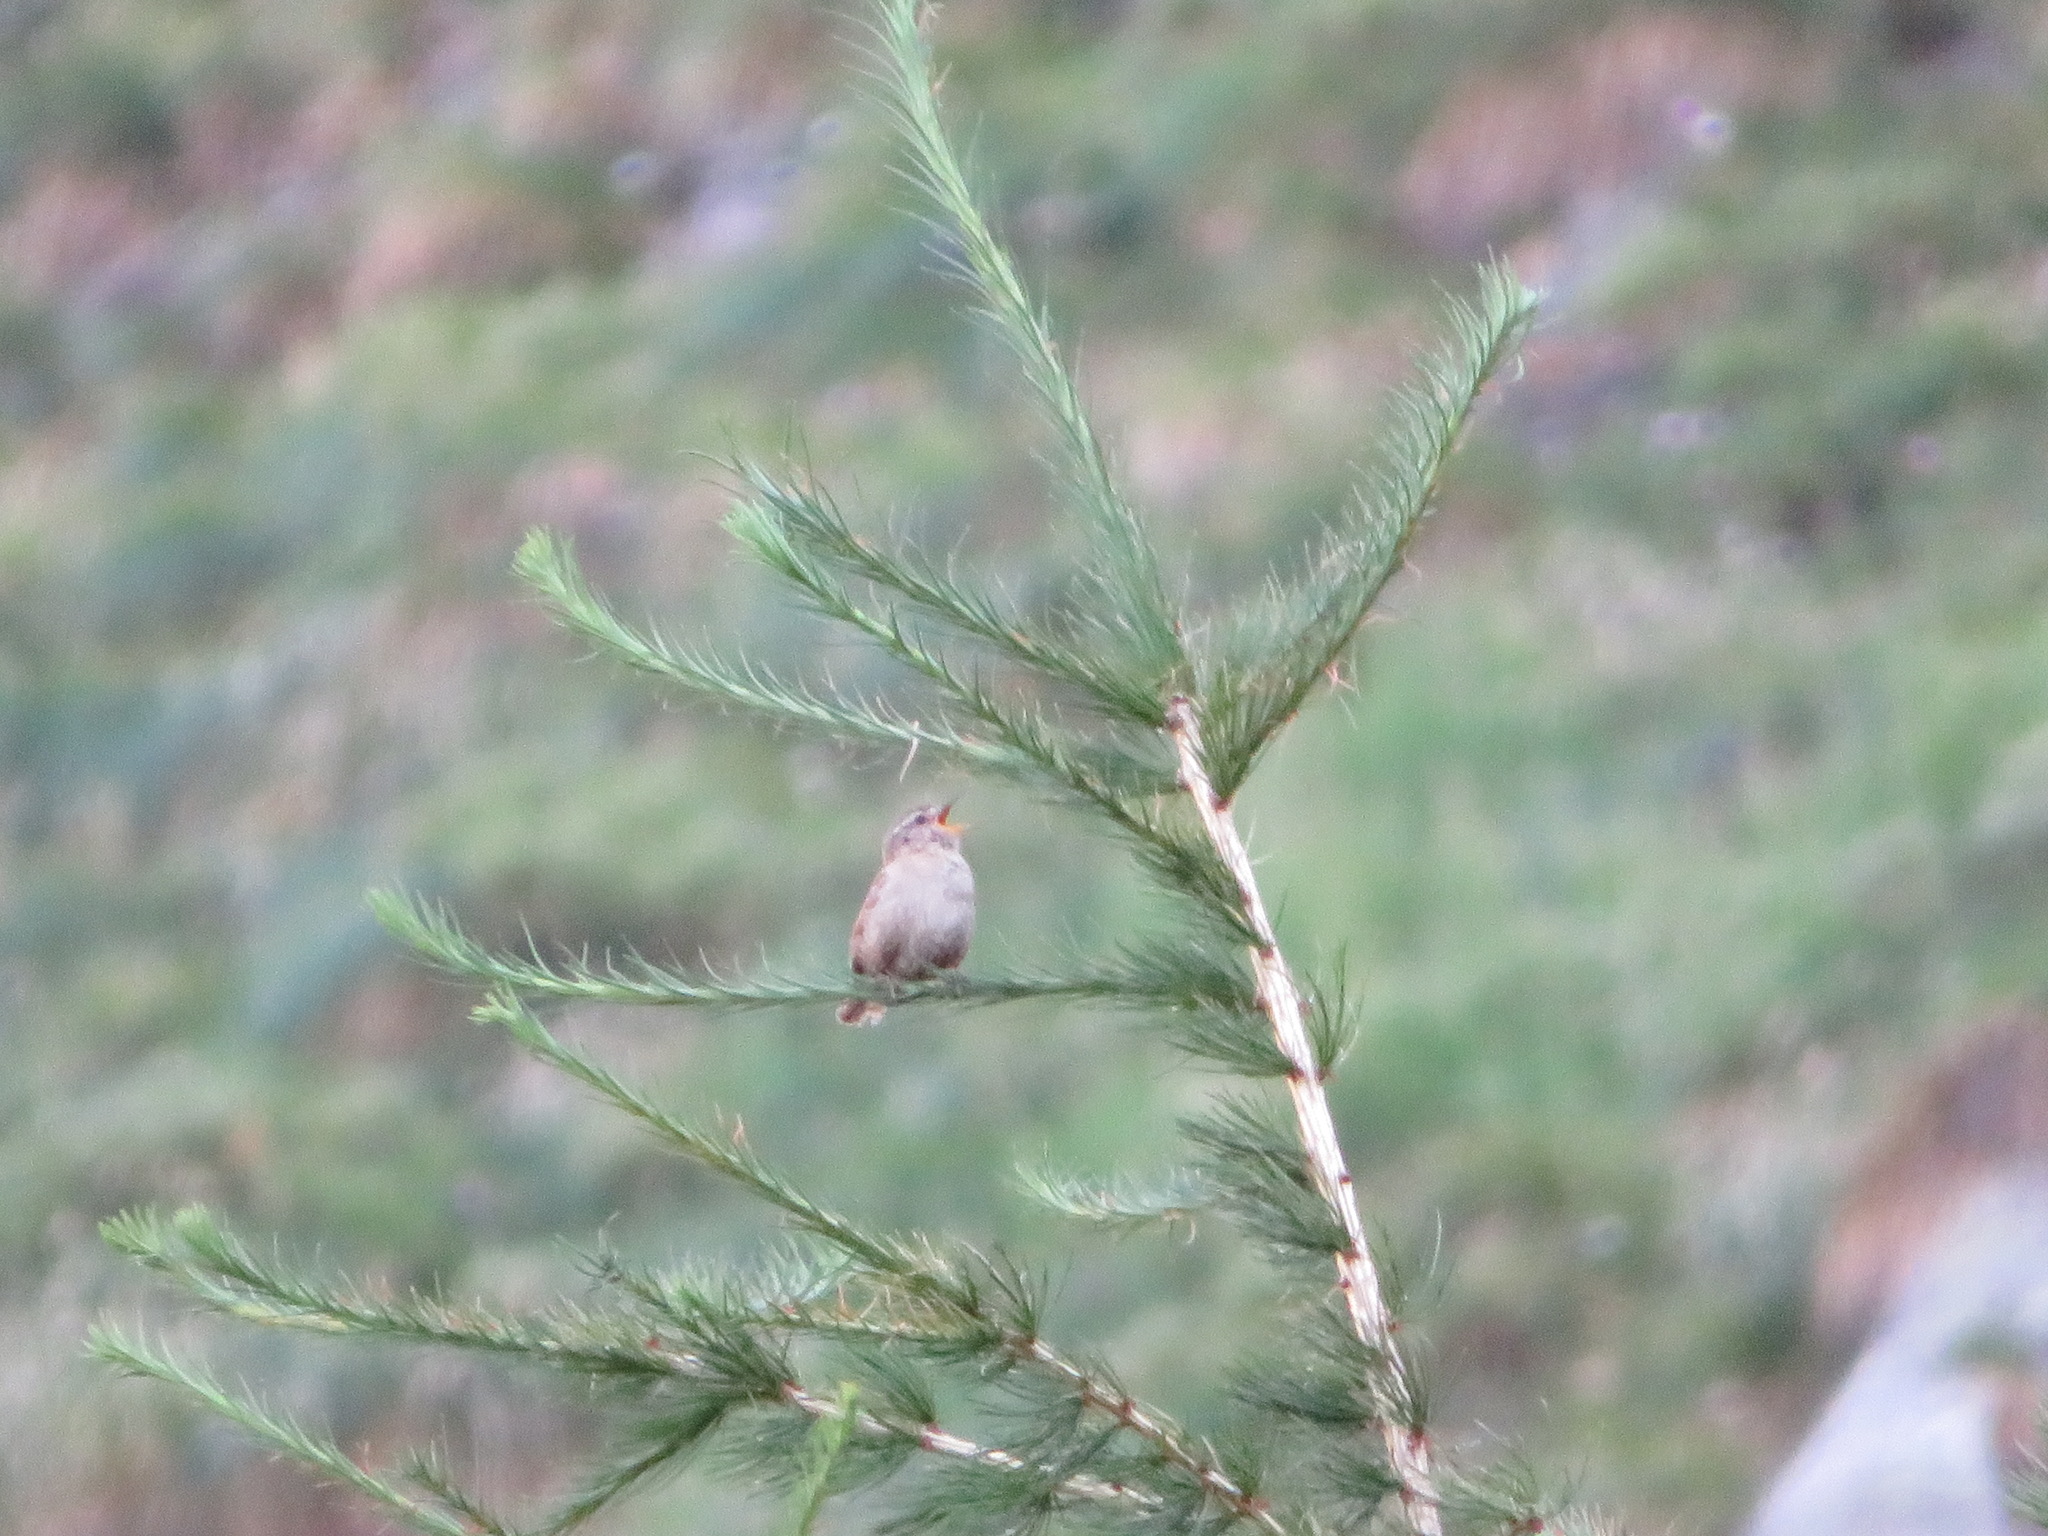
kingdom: Animalia
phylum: Chordata
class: Aves
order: Passeriformes
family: Troglodytidae
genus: Troglodytes
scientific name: Troglodytes troglodytes
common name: Eurasian wren
